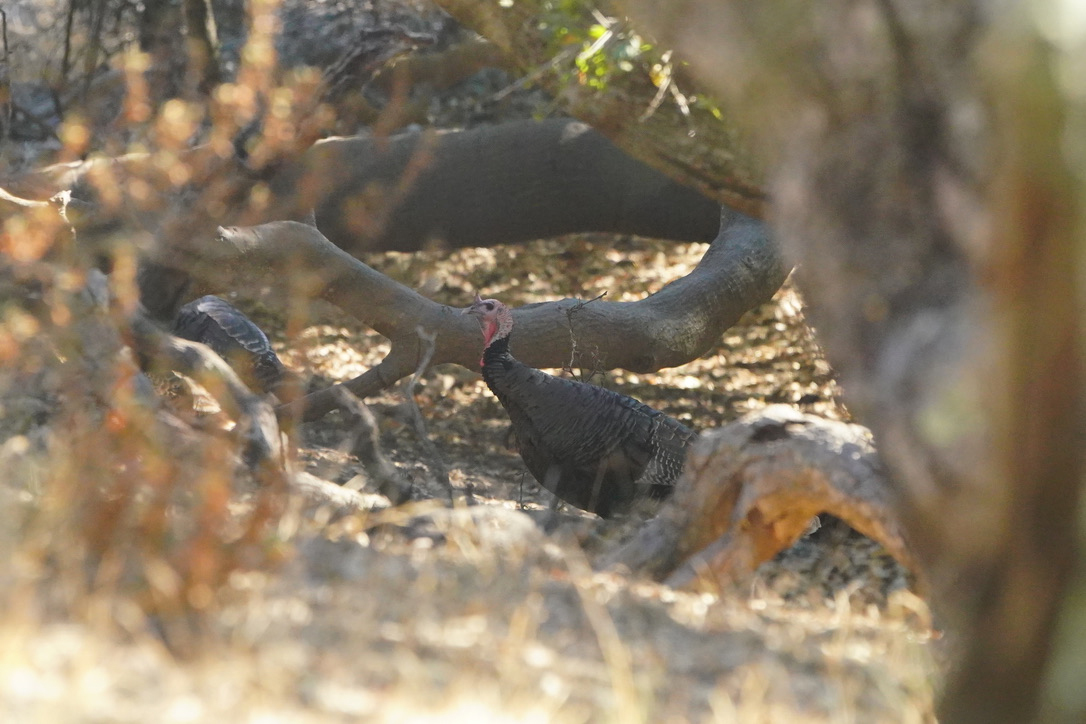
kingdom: Animalia
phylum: Chordata
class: Aves
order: Galliformes
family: Phasianidae
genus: Meleagris
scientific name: Meleagris gallopavo
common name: Wild turkey
